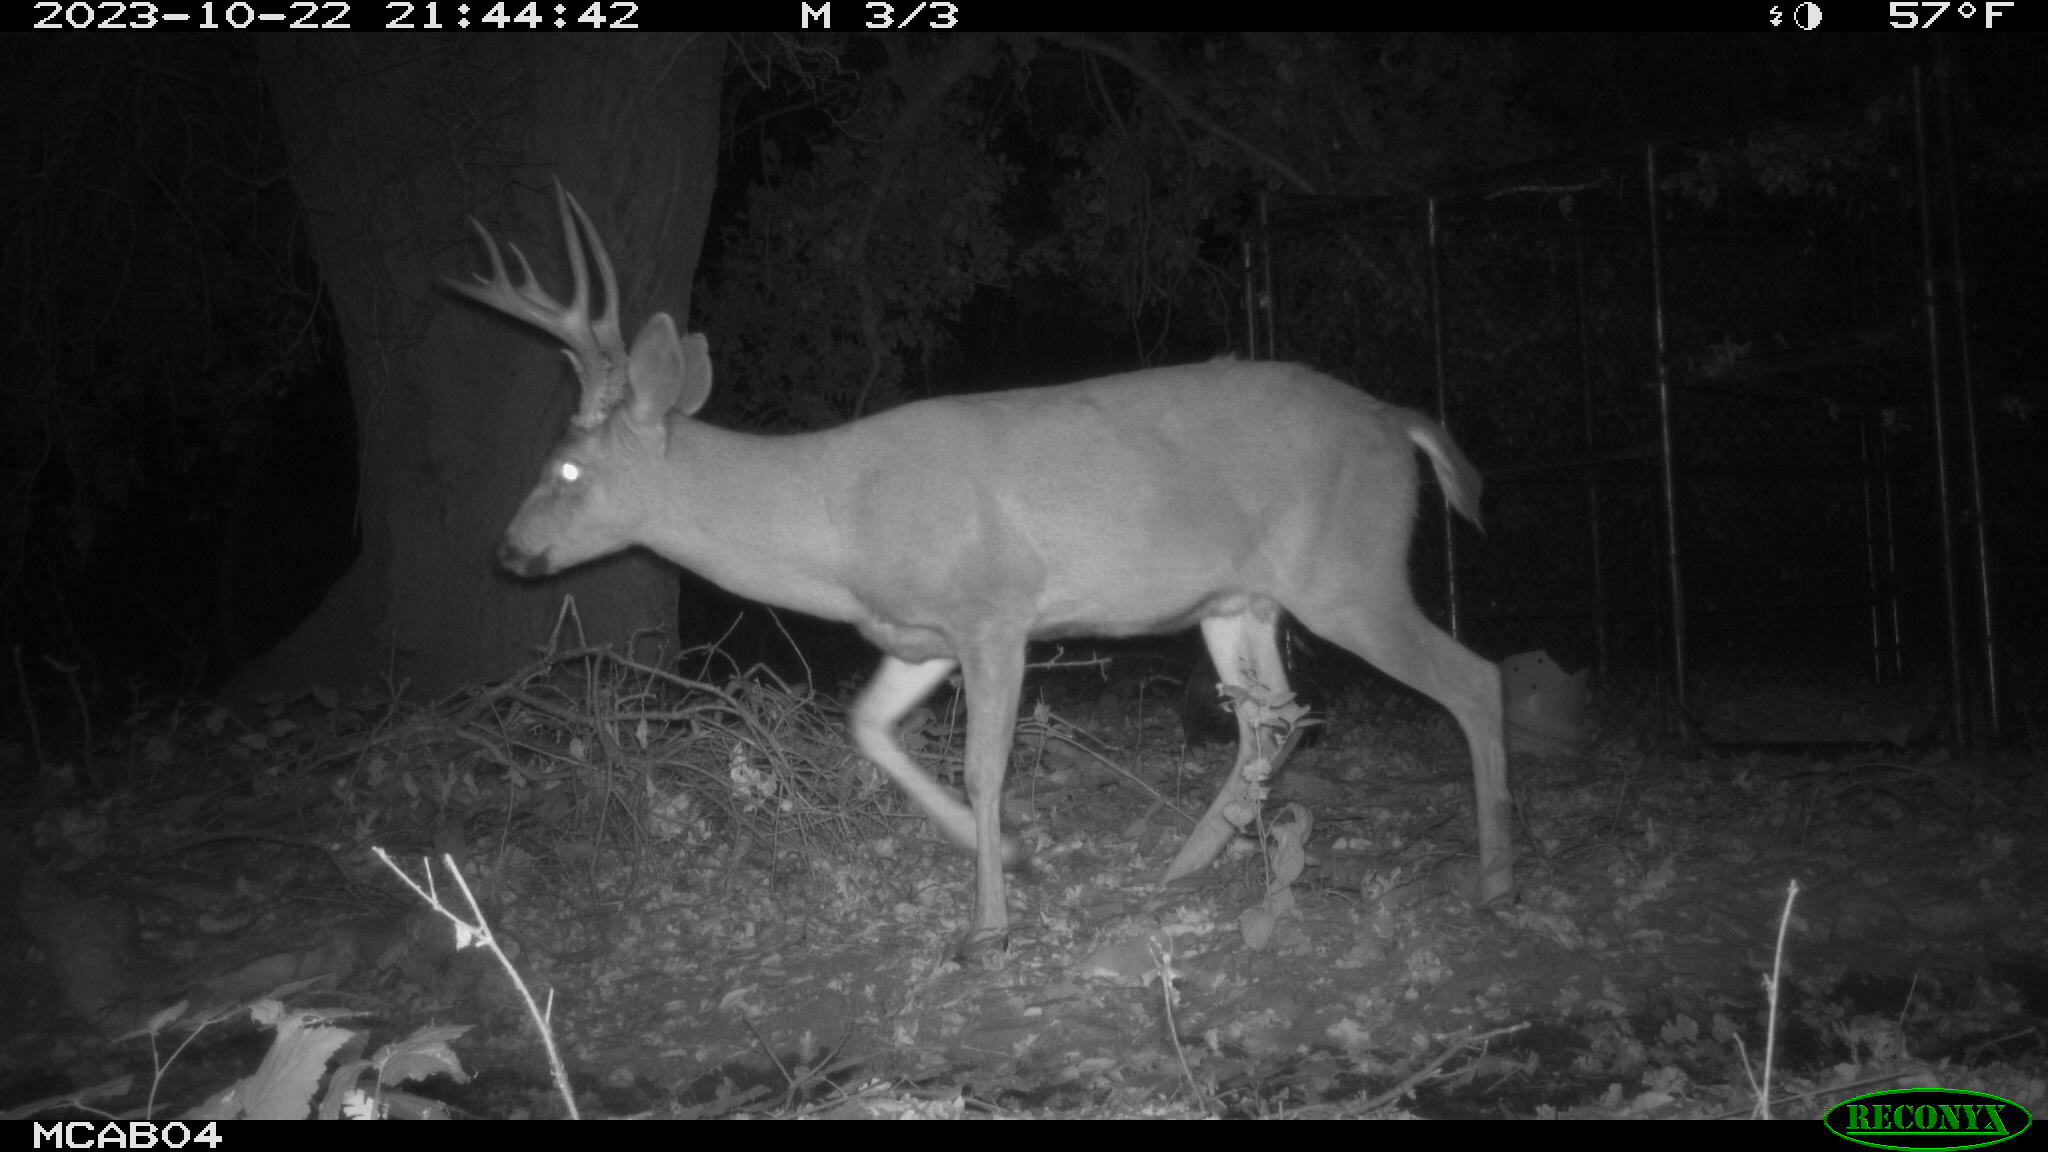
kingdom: Animalia
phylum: Chordata
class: Mammalia
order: Artiodactyla
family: Cervidae
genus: Odocoileus
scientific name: Odocoileus hemionus
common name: Mule deer
